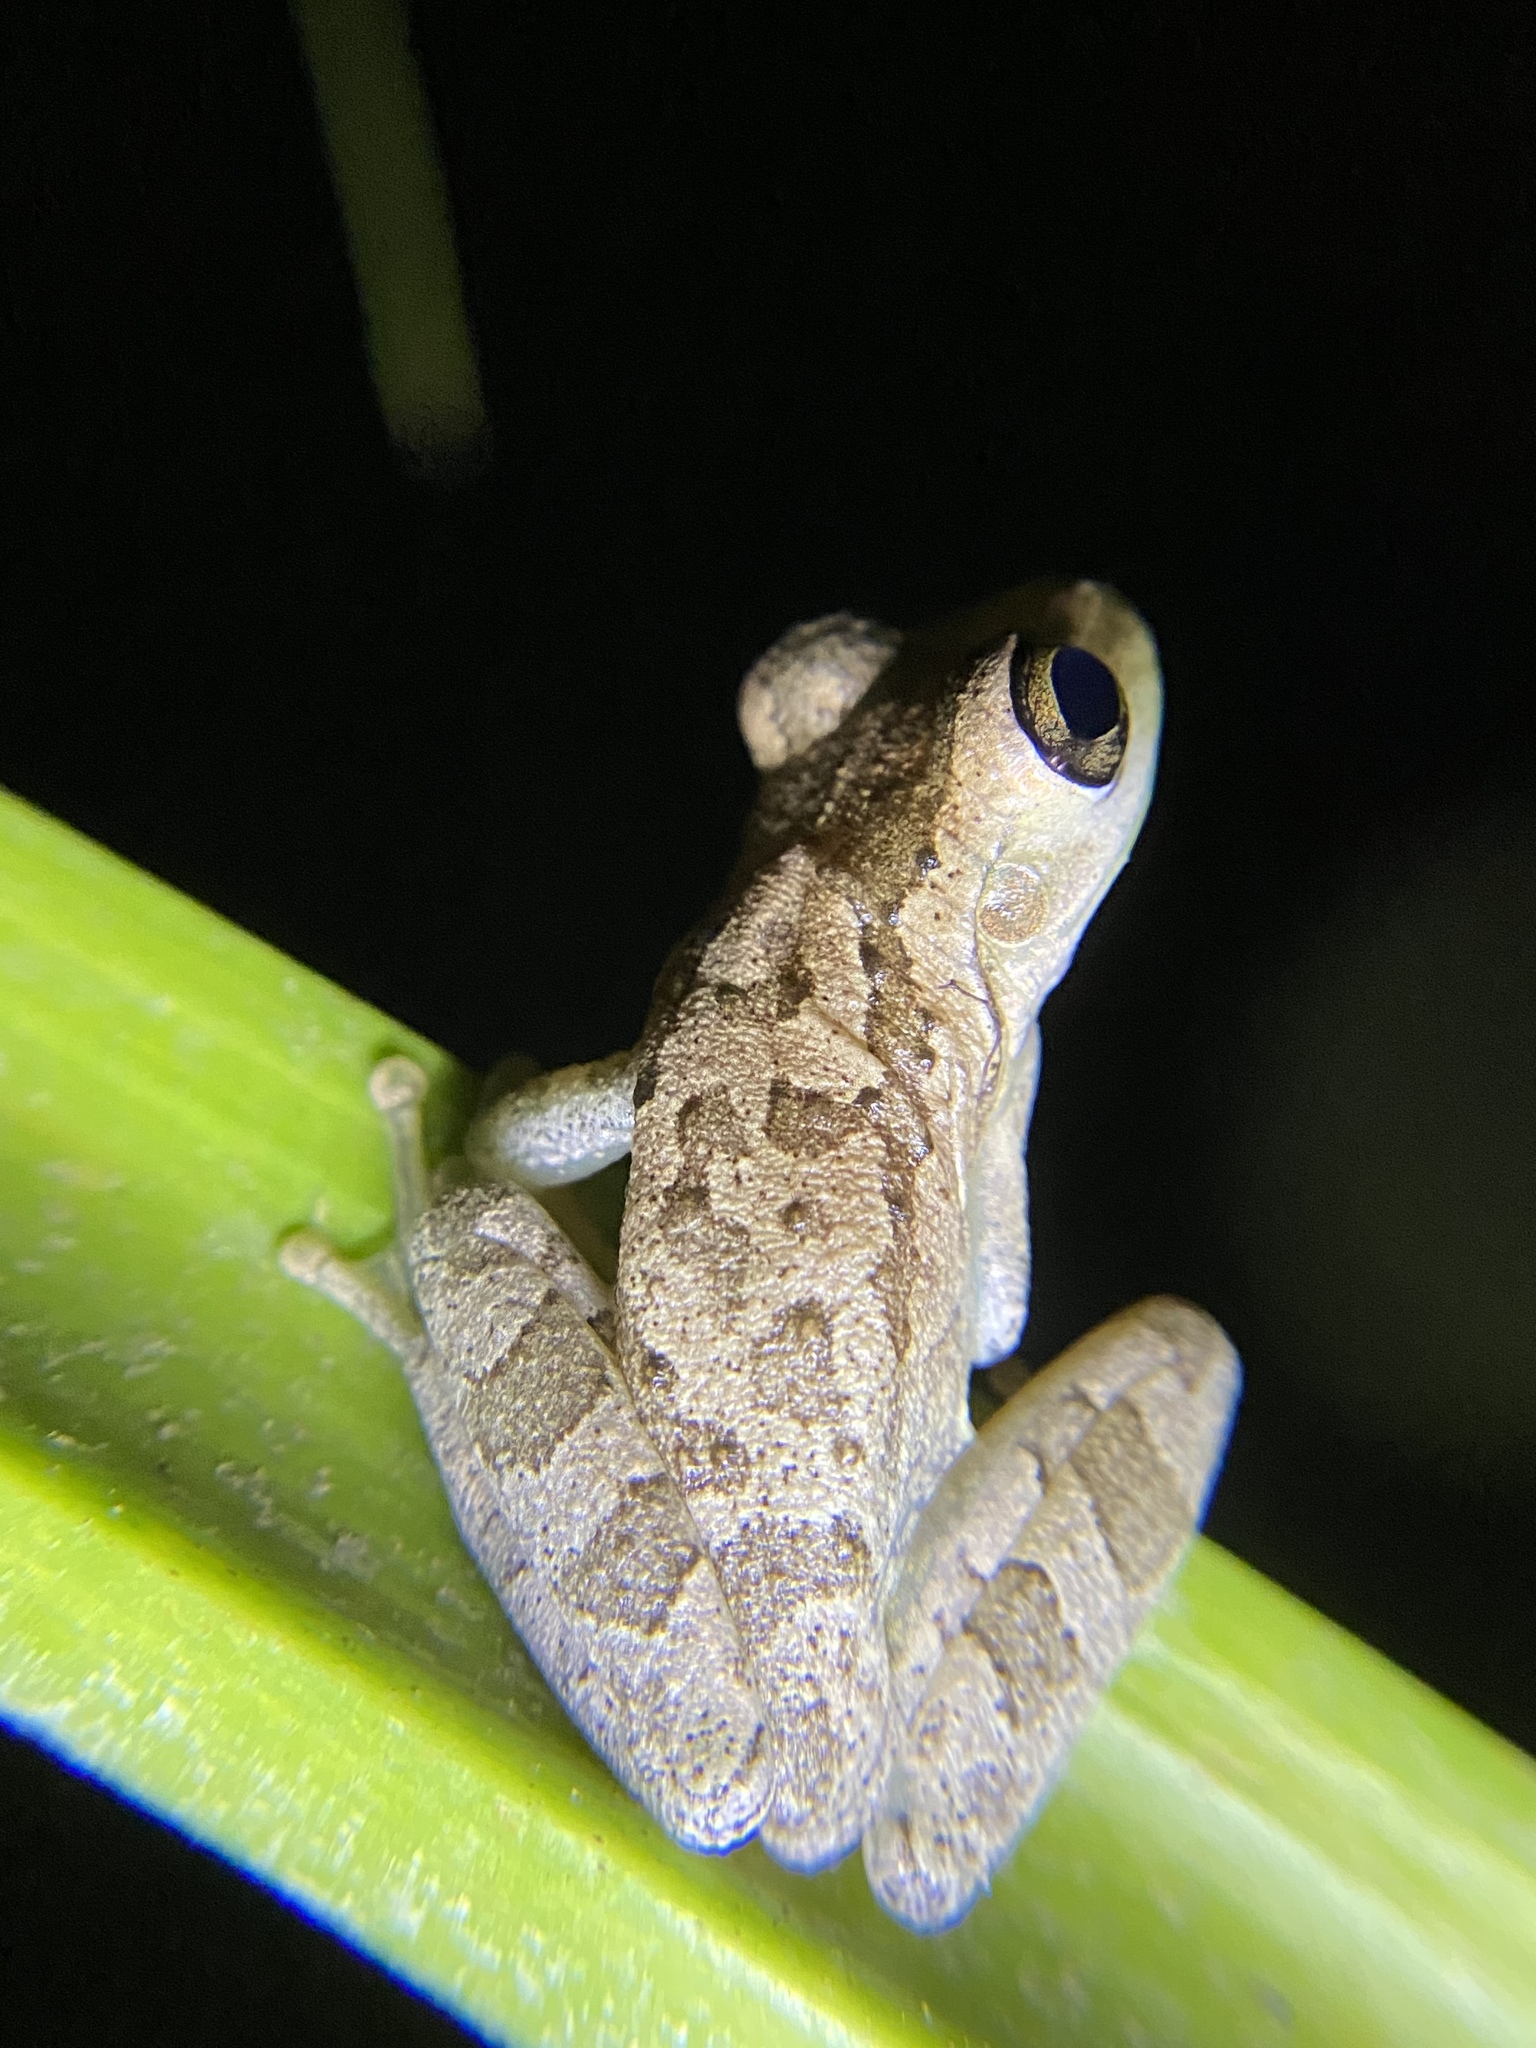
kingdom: Animalia
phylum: Chordata
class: Amphibia
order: Anura
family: Hylidae
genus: Osteopilus
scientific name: Osteopilus septentrionalis
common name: Cuban treefrog
